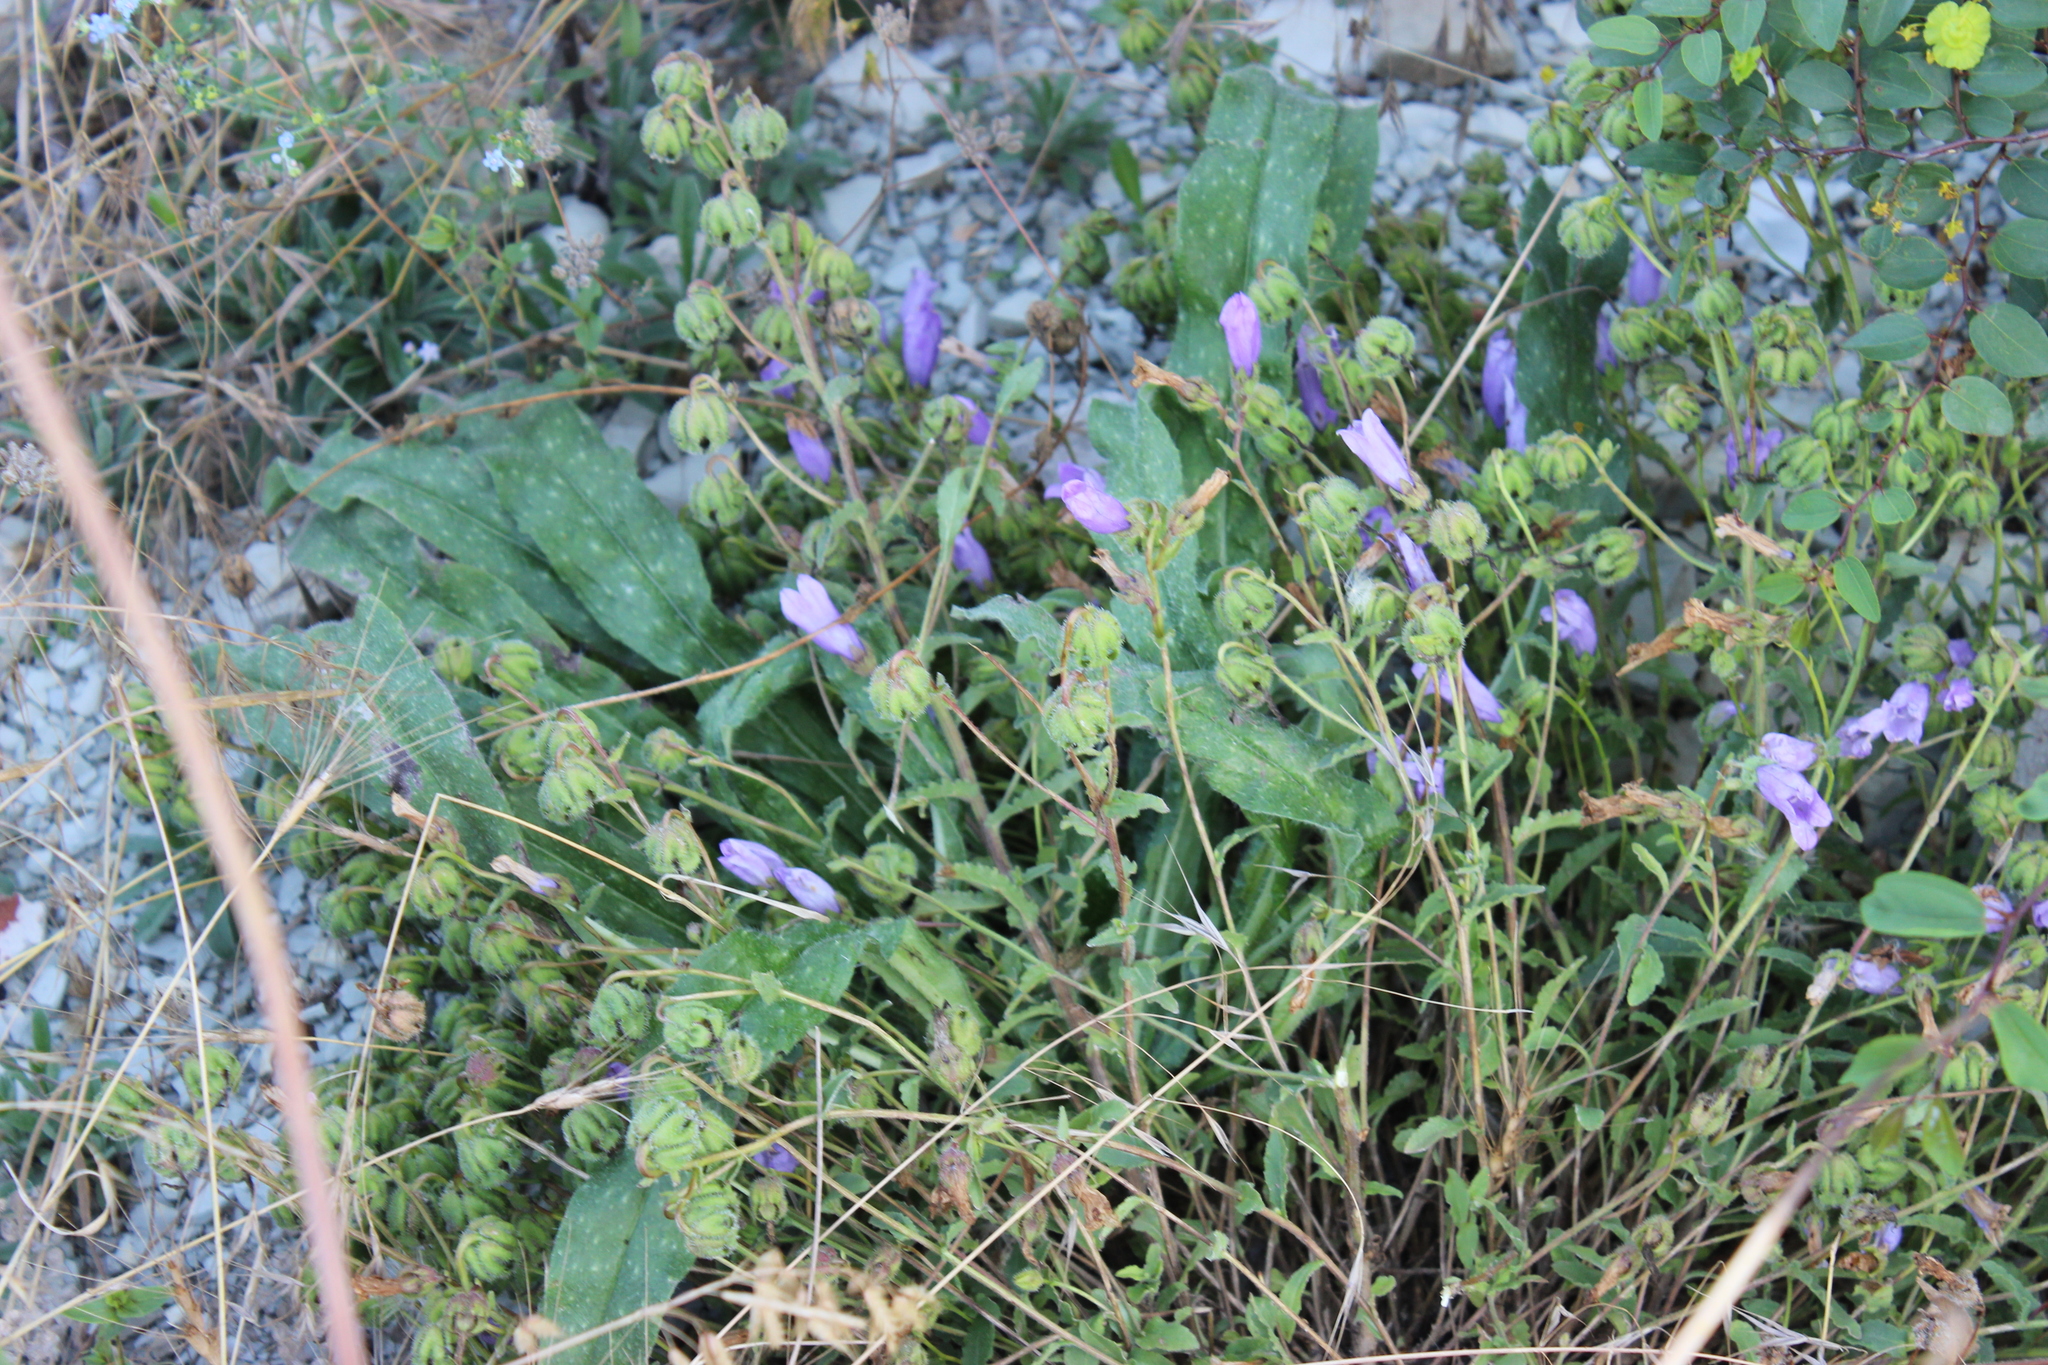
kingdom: Plantae
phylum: Tracheophyta
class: Magnoliopsida
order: Asterales
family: Campanulaceae
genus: Campanula
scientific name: Campanula komarovii
